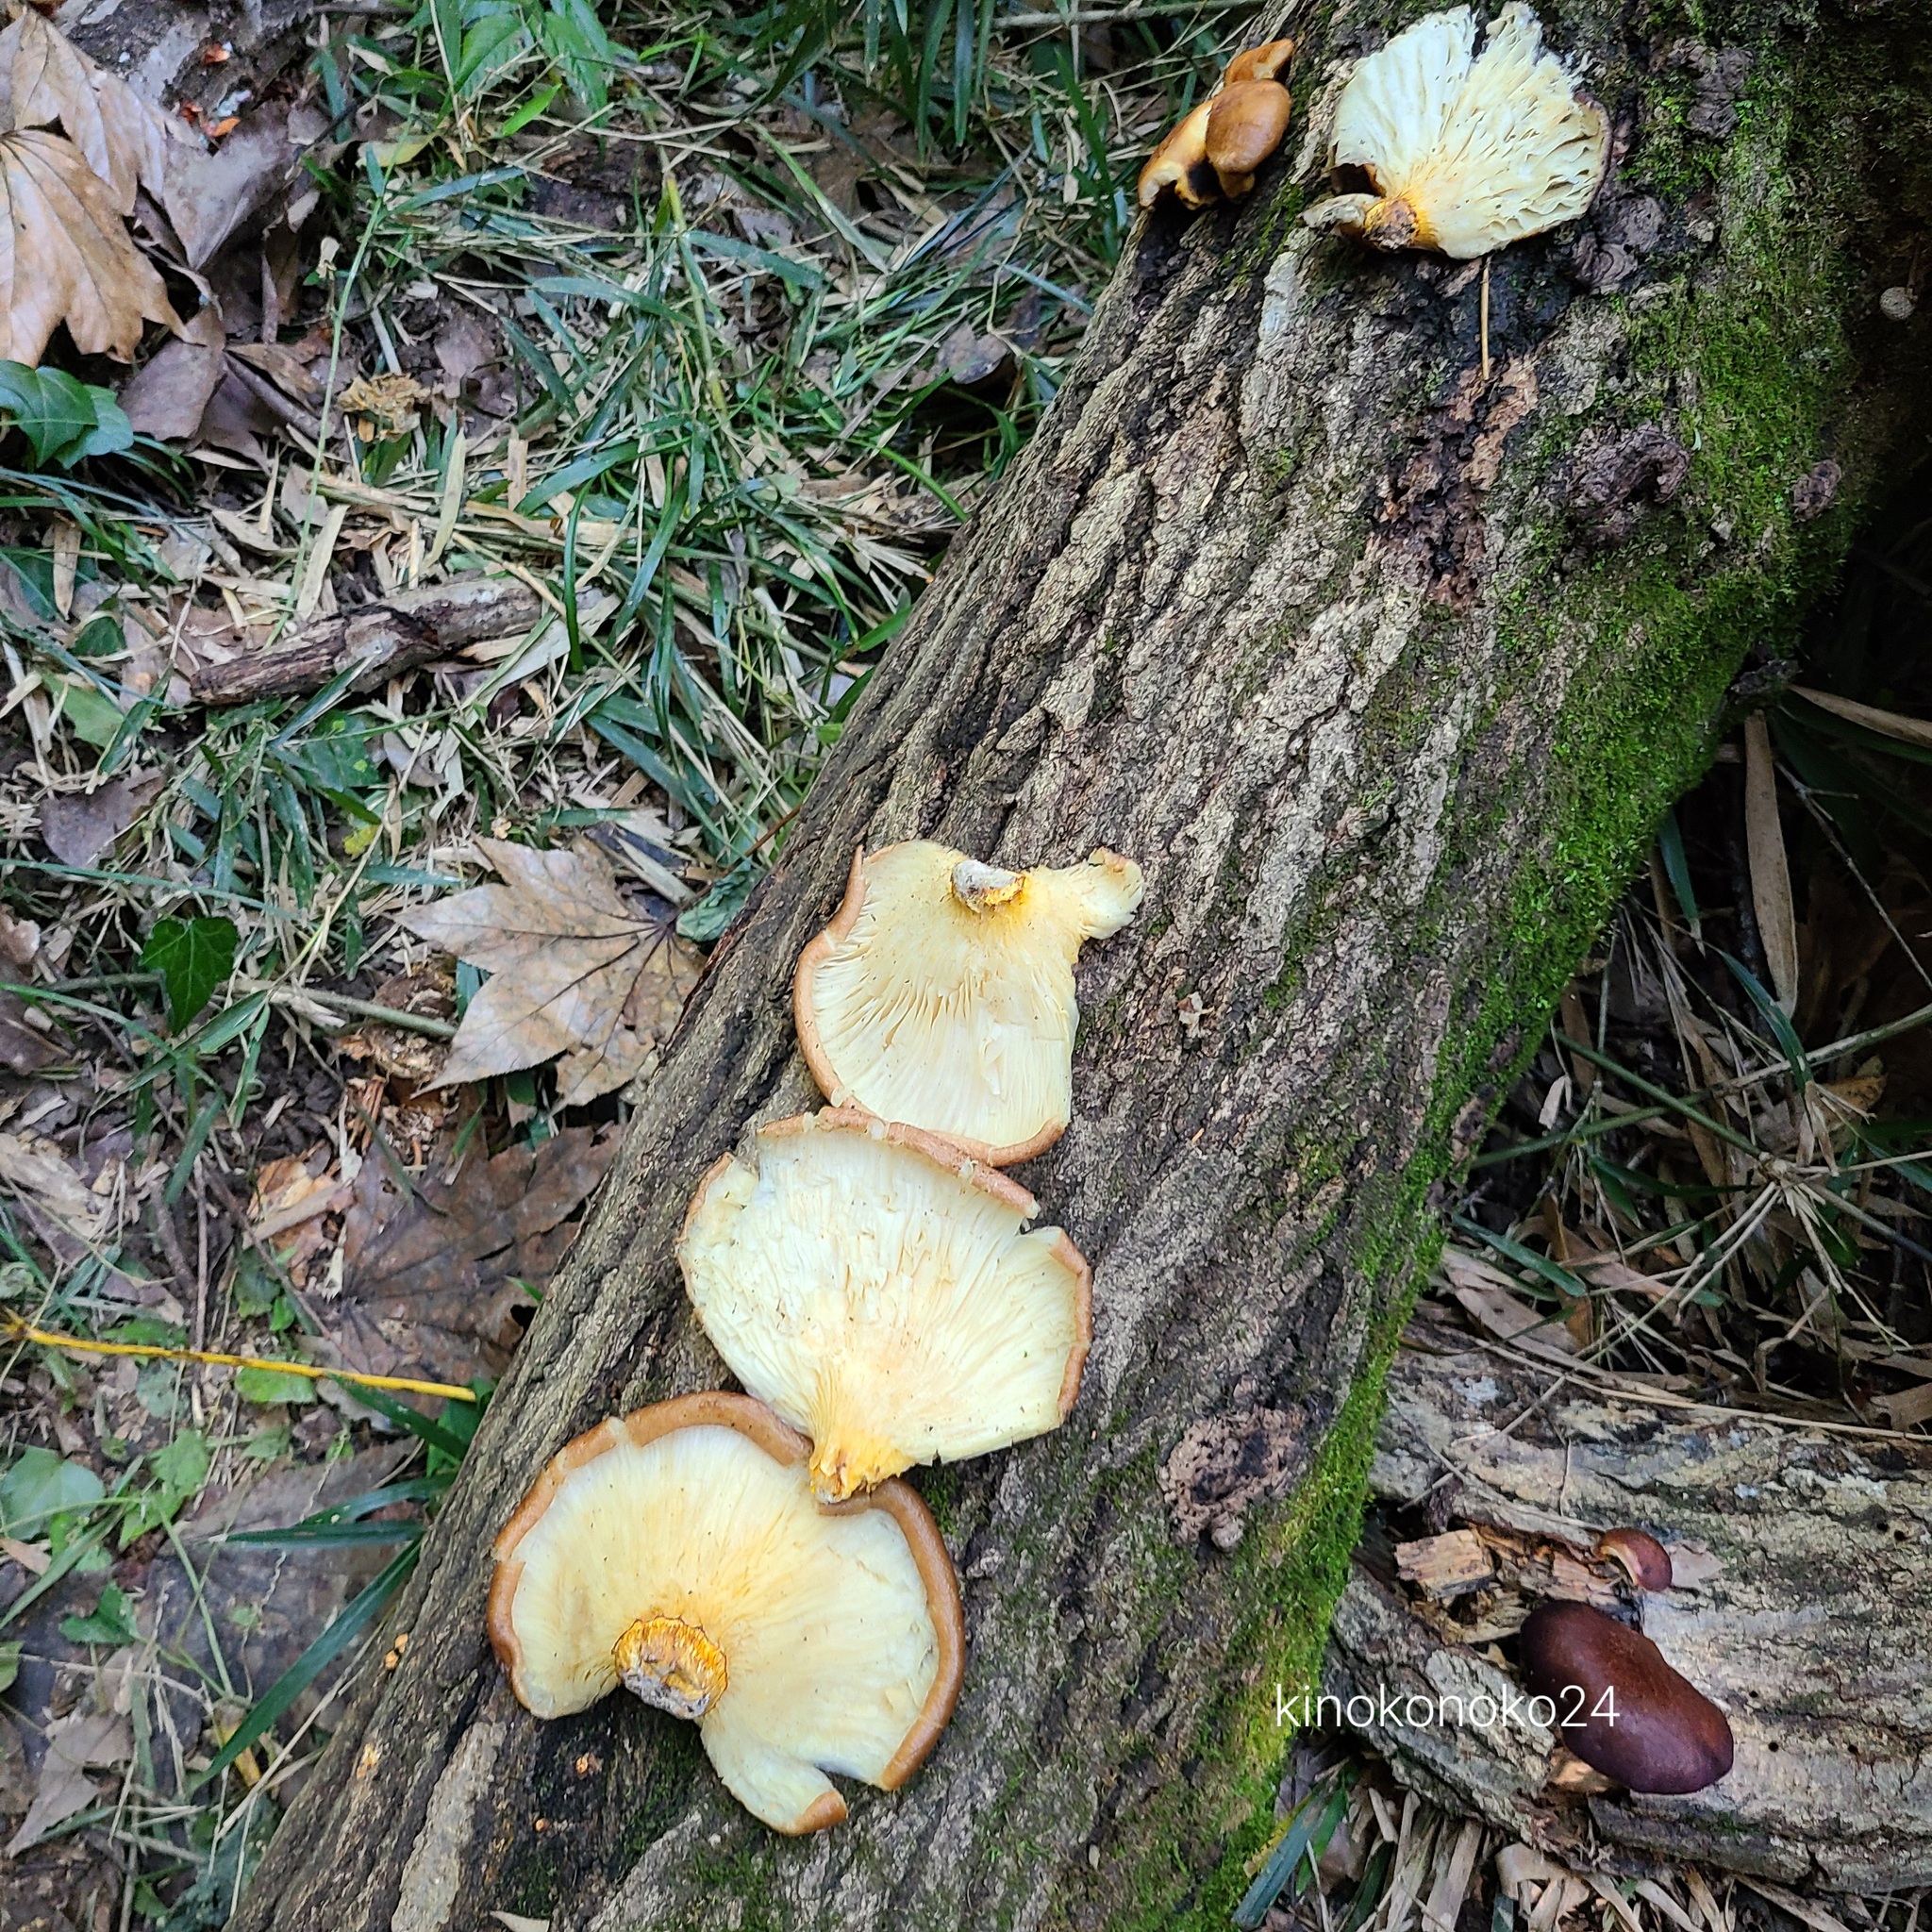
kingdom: Fungi
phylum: Basidiomycota
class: Agaricomycetes
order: Agaricales
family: Omphalotaceae
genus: Omphalotus
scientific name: Omphalotus guepiniiformis
